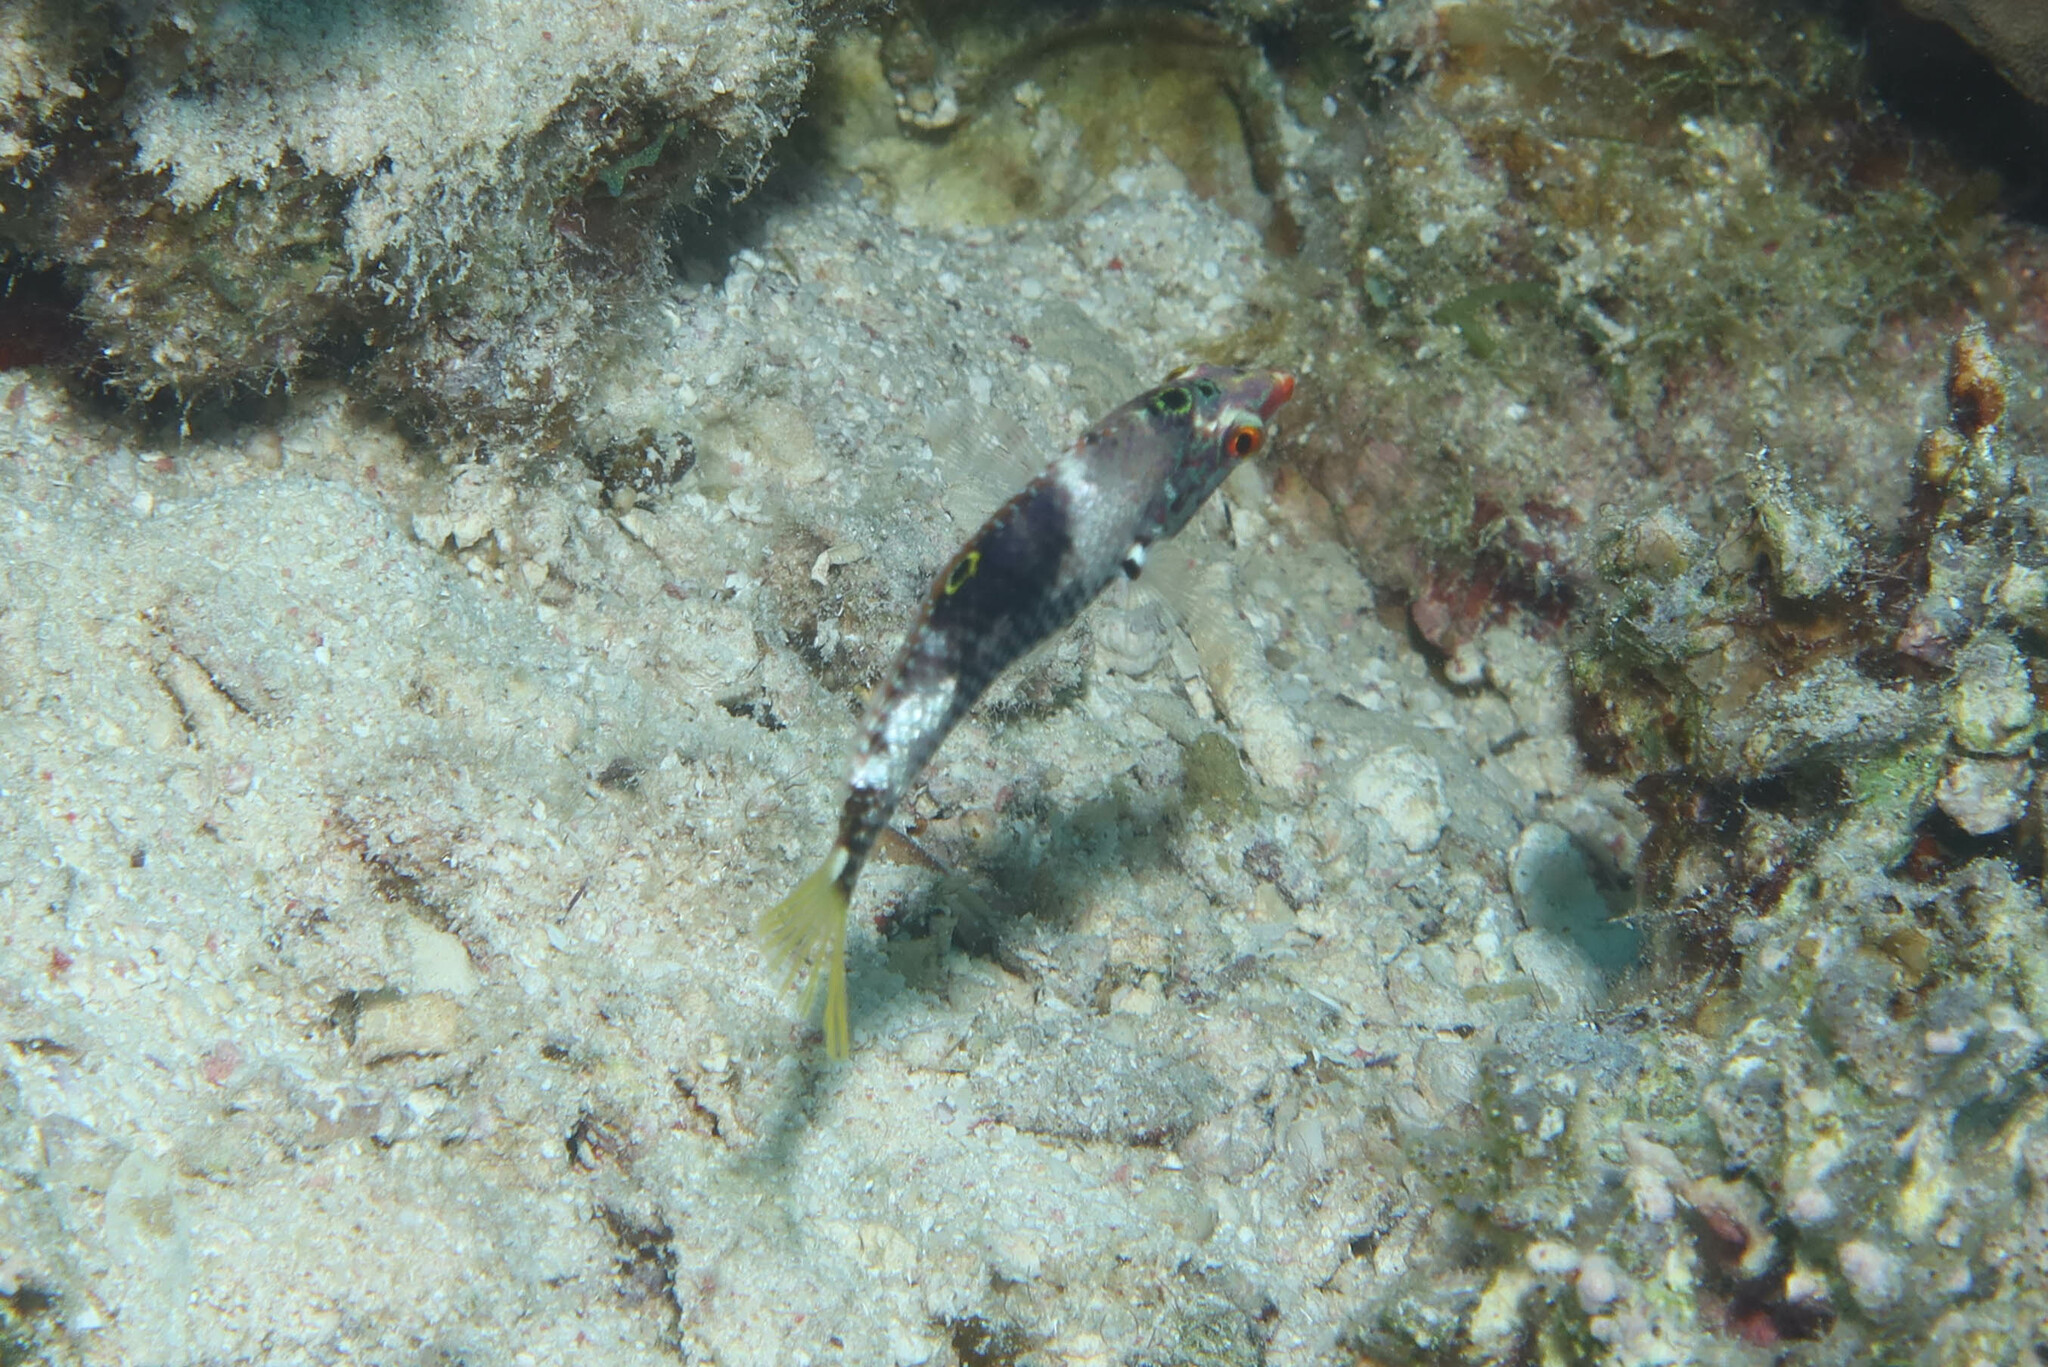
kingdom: Animalia
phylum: Chordata
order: Perciformes
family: Labridae
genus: Halichoeres
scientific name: Halichoeres hortulanus
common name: Checkerboard wrasse
